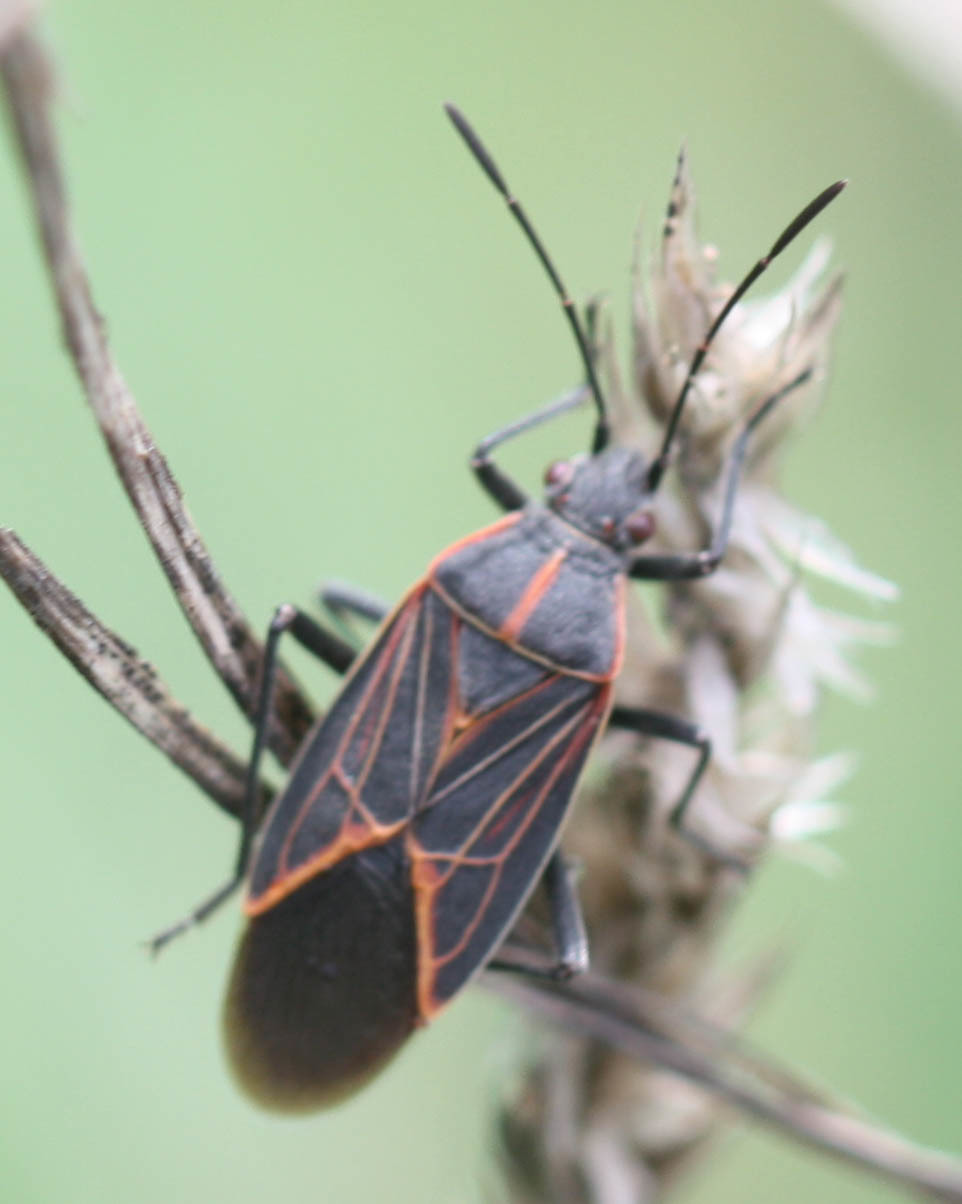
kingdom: Animalia
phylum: Arthropoda
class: Insecta
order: Hemiptera
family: Rhopalidae
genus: Boisea
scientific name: Boisea rubrolineata
